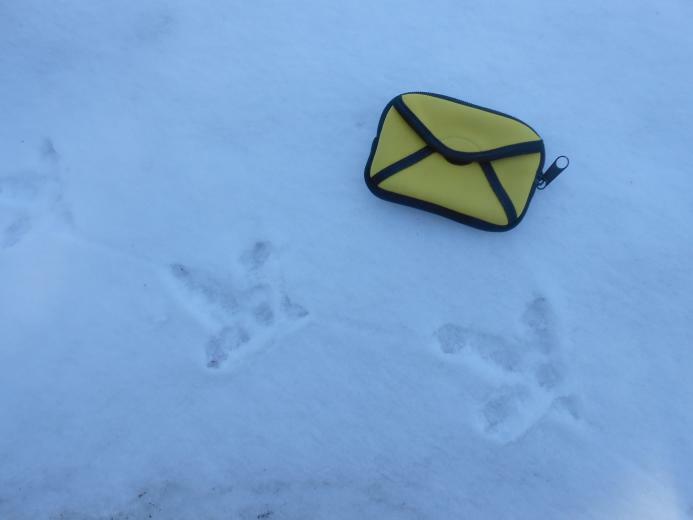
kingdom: Animalia
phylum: Chordata
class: Aves
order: Galliformes
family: Phasianidae
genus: Tetrao
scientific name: Tetrao urogallus
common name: Western capercaillie
